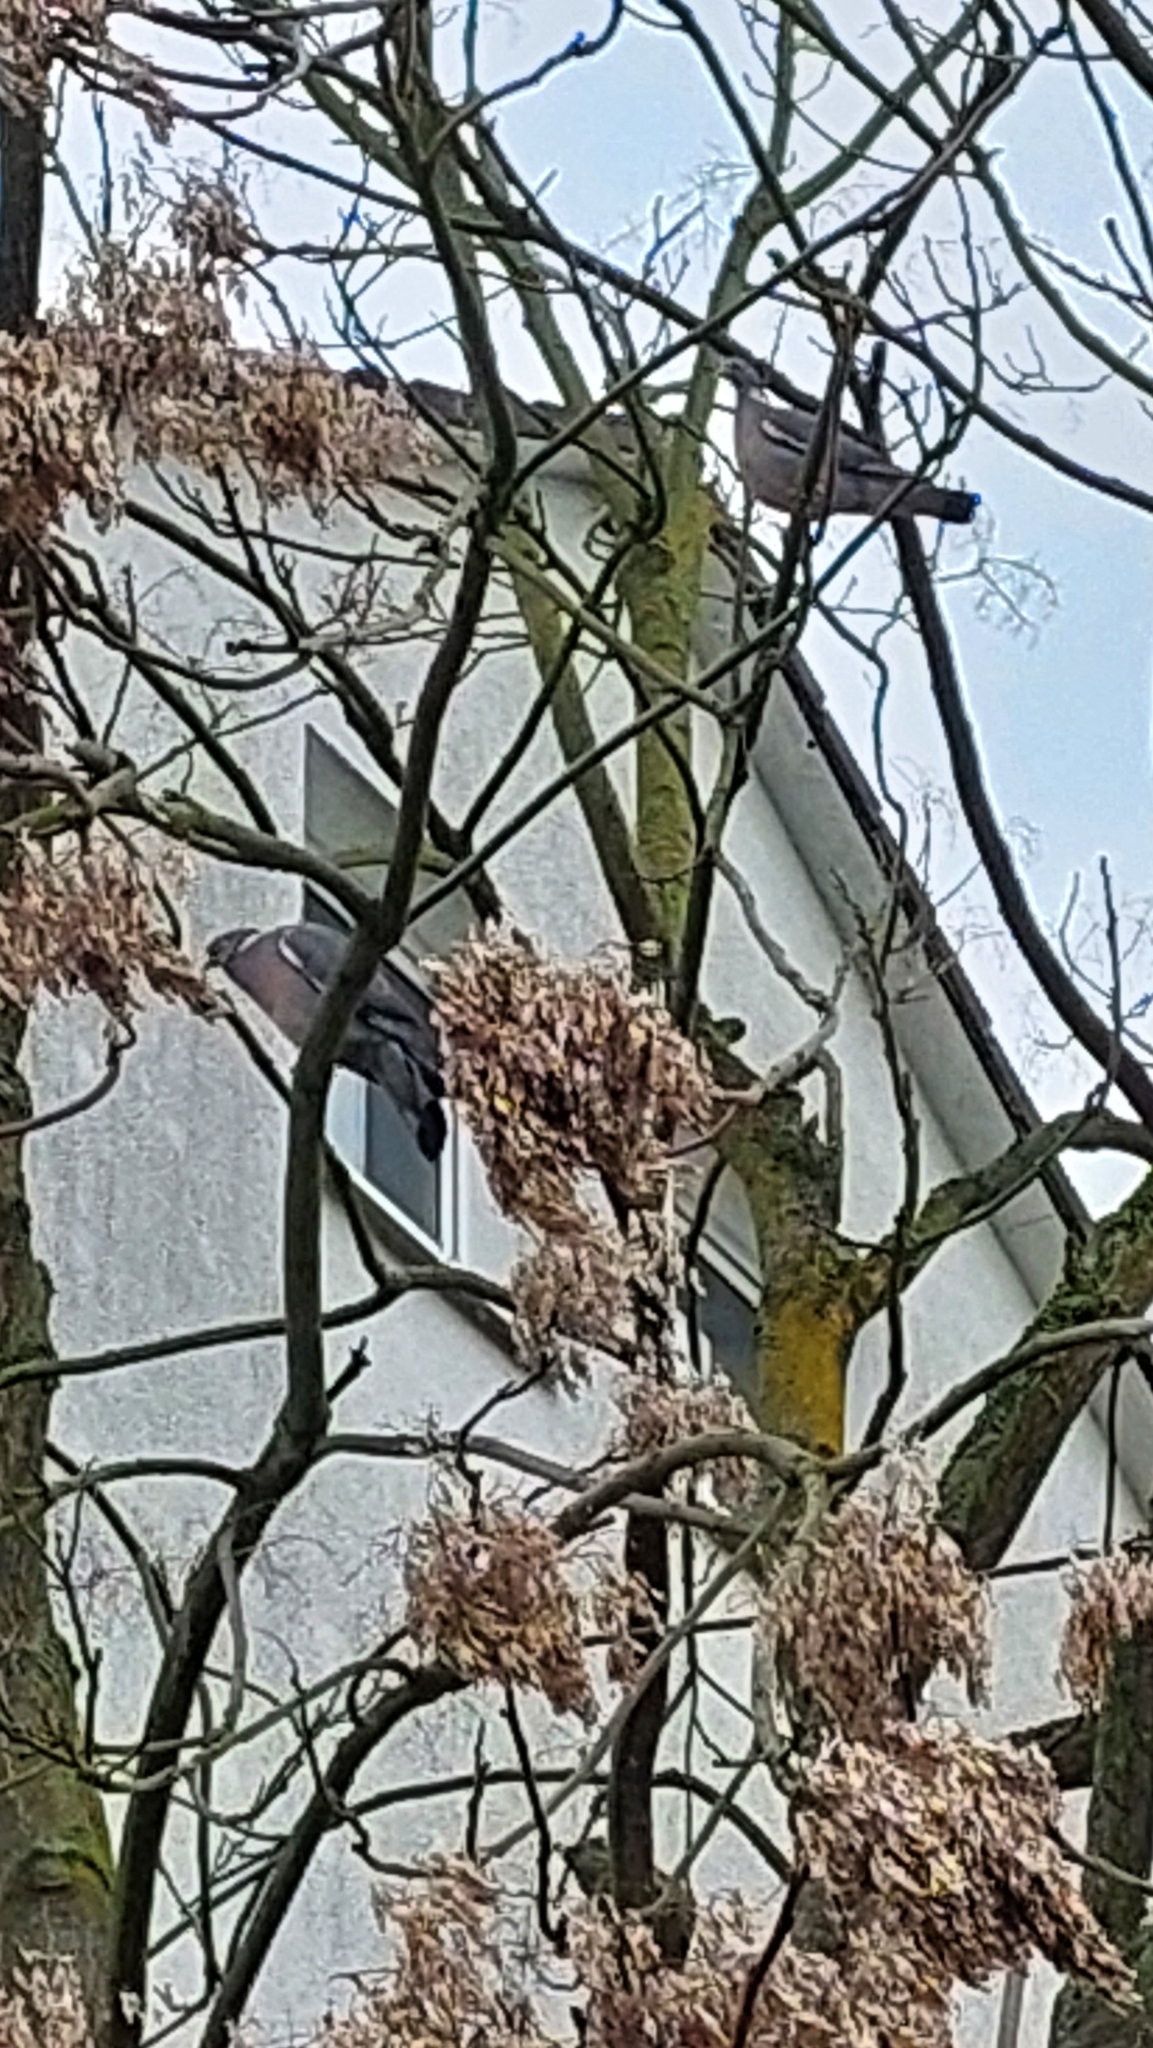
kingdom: Animalia
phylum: Chordata
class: Aves
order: Columbiformes
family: Columbidae
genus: Columba
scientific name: Columba palumbus
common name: Common wood pigeon
